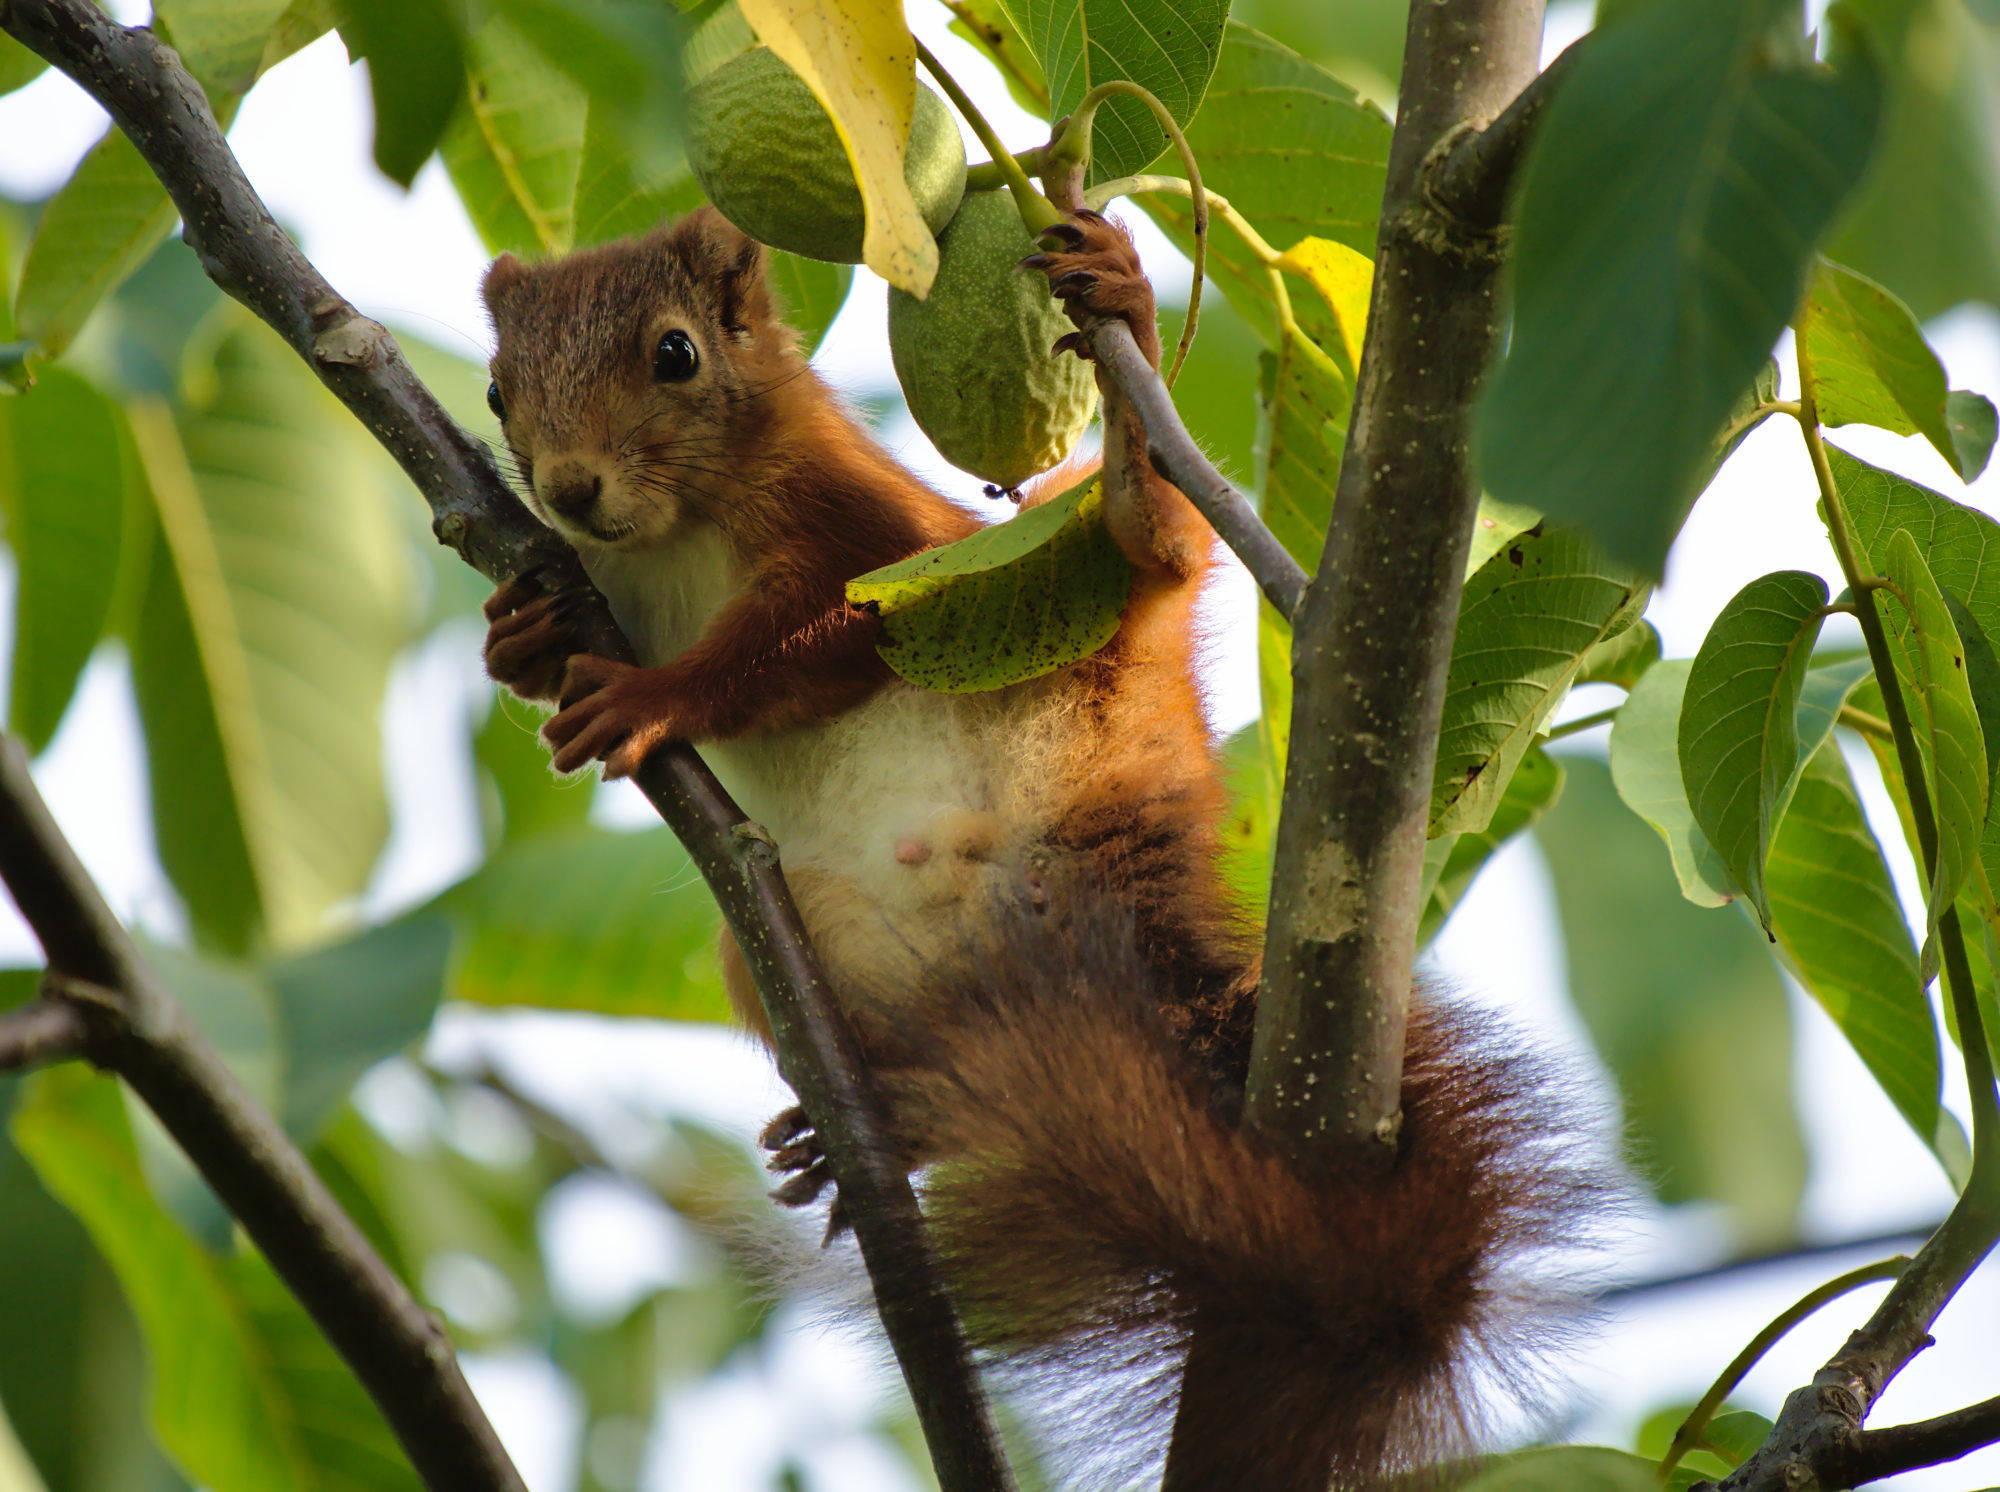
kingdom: Animalia
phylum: Chordata
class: Mammalia
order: Rodentia
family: Sciuridae
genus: Sciurus
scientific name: Sciurus vulgaris
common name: Eurasian red squirrel
